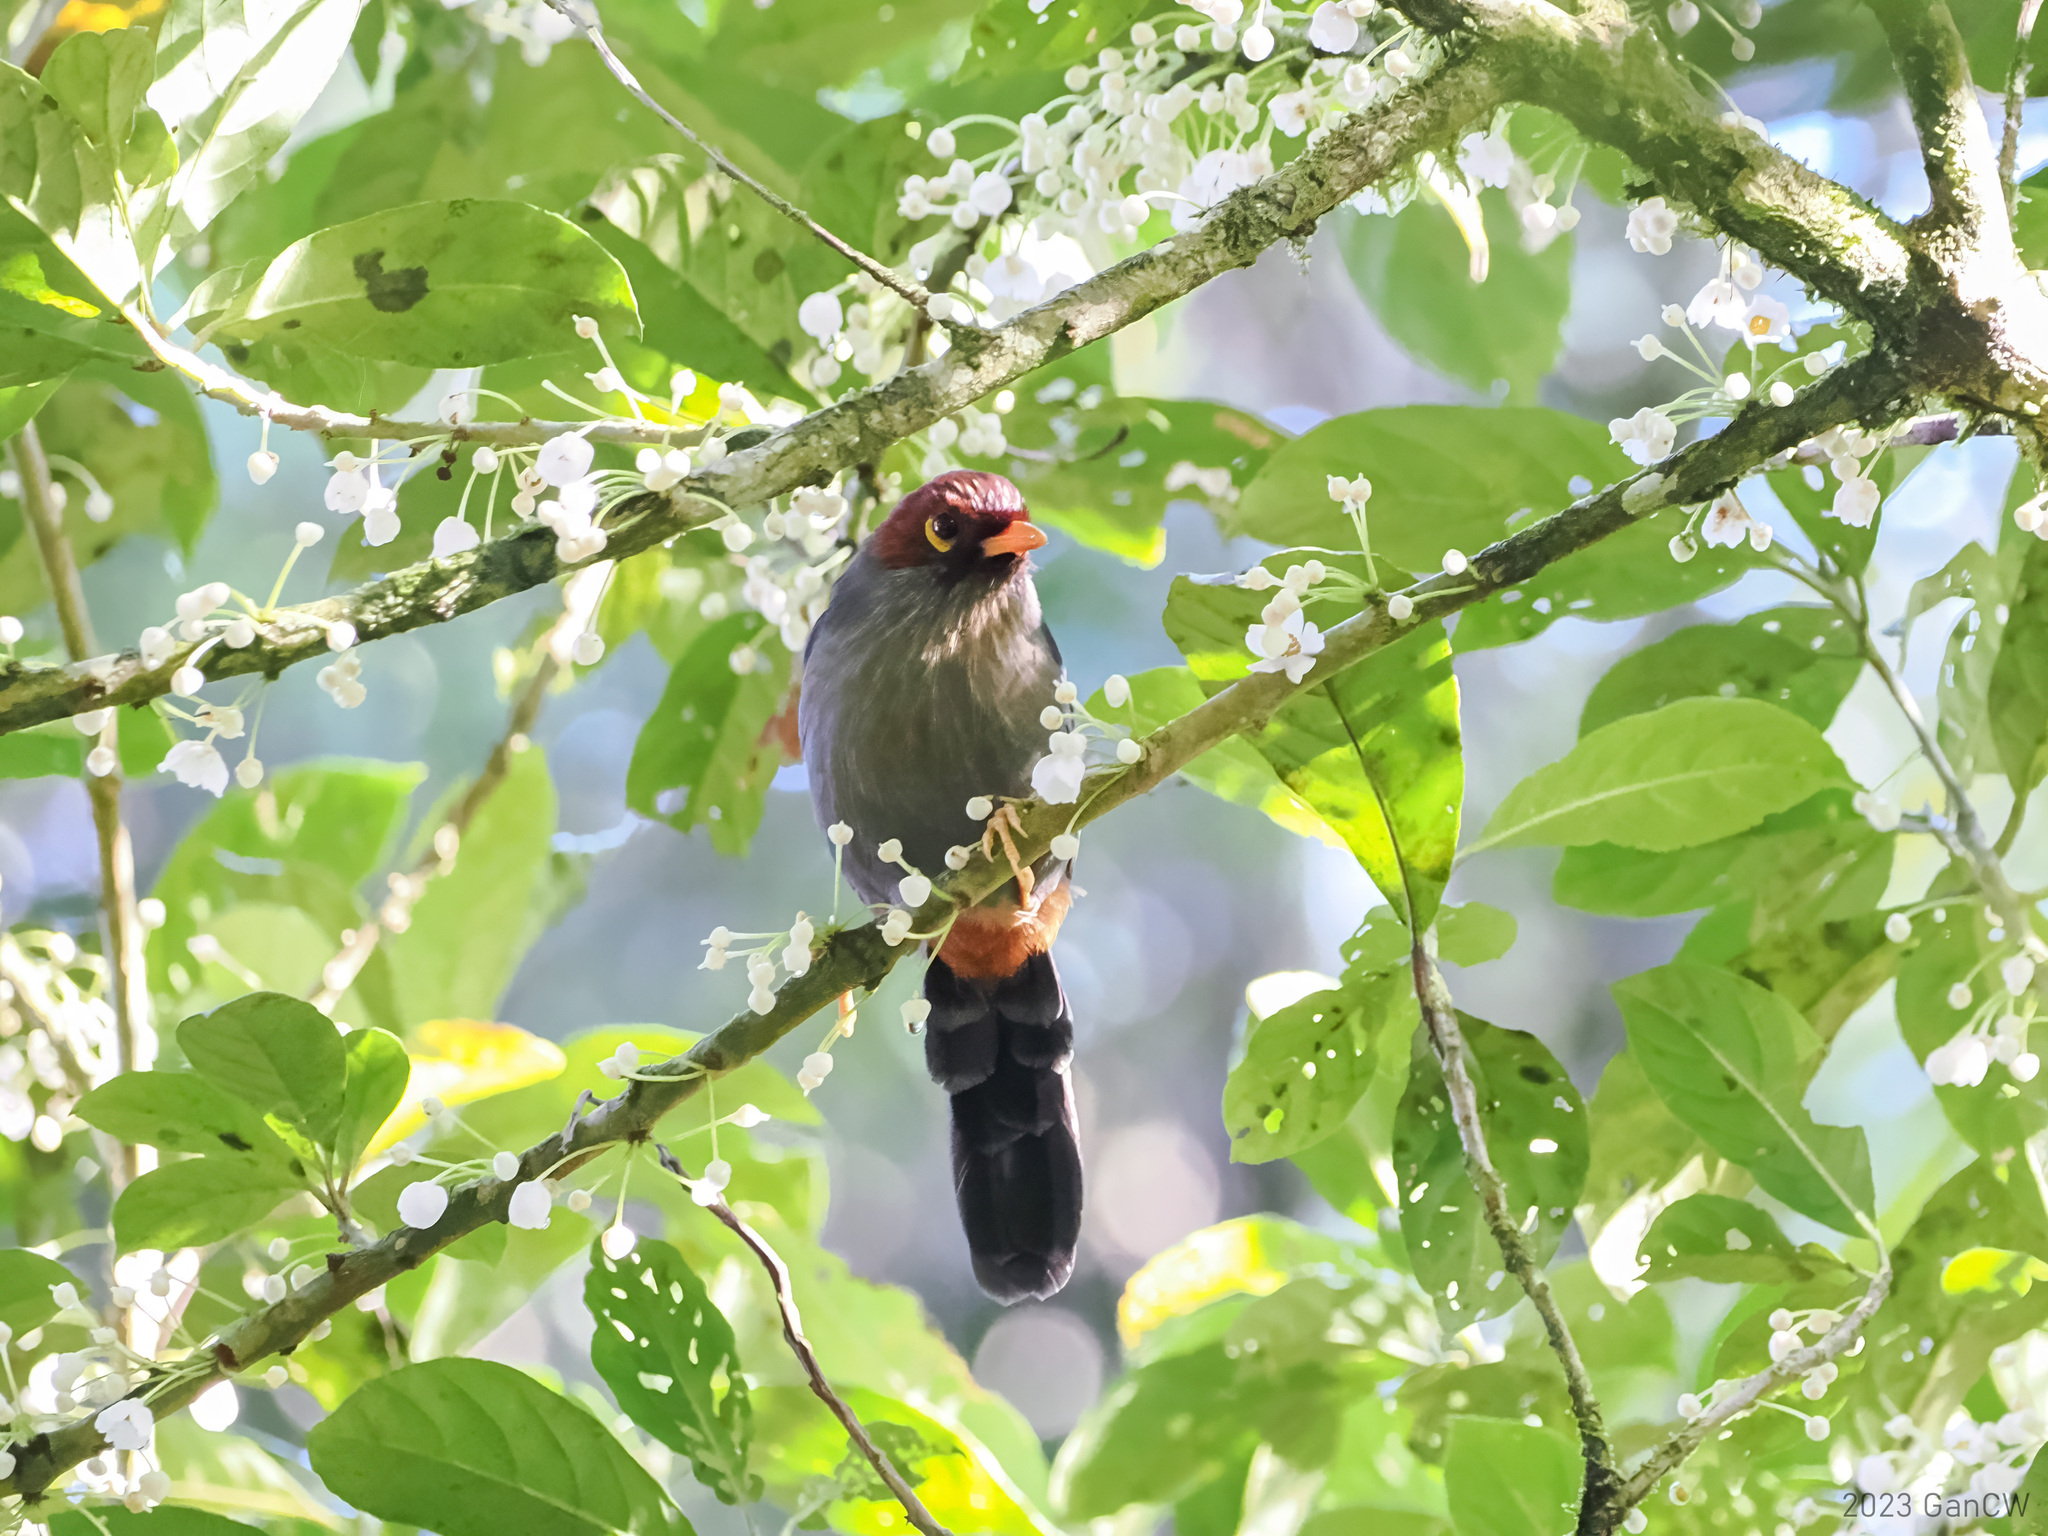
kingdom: Animalia
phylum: Chordata
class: Aves
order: Passeriformes
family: Leiothrichidae
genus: Garrulax
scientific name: Garrulax treacheri
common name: Chestnut-hooded laughingthrush
